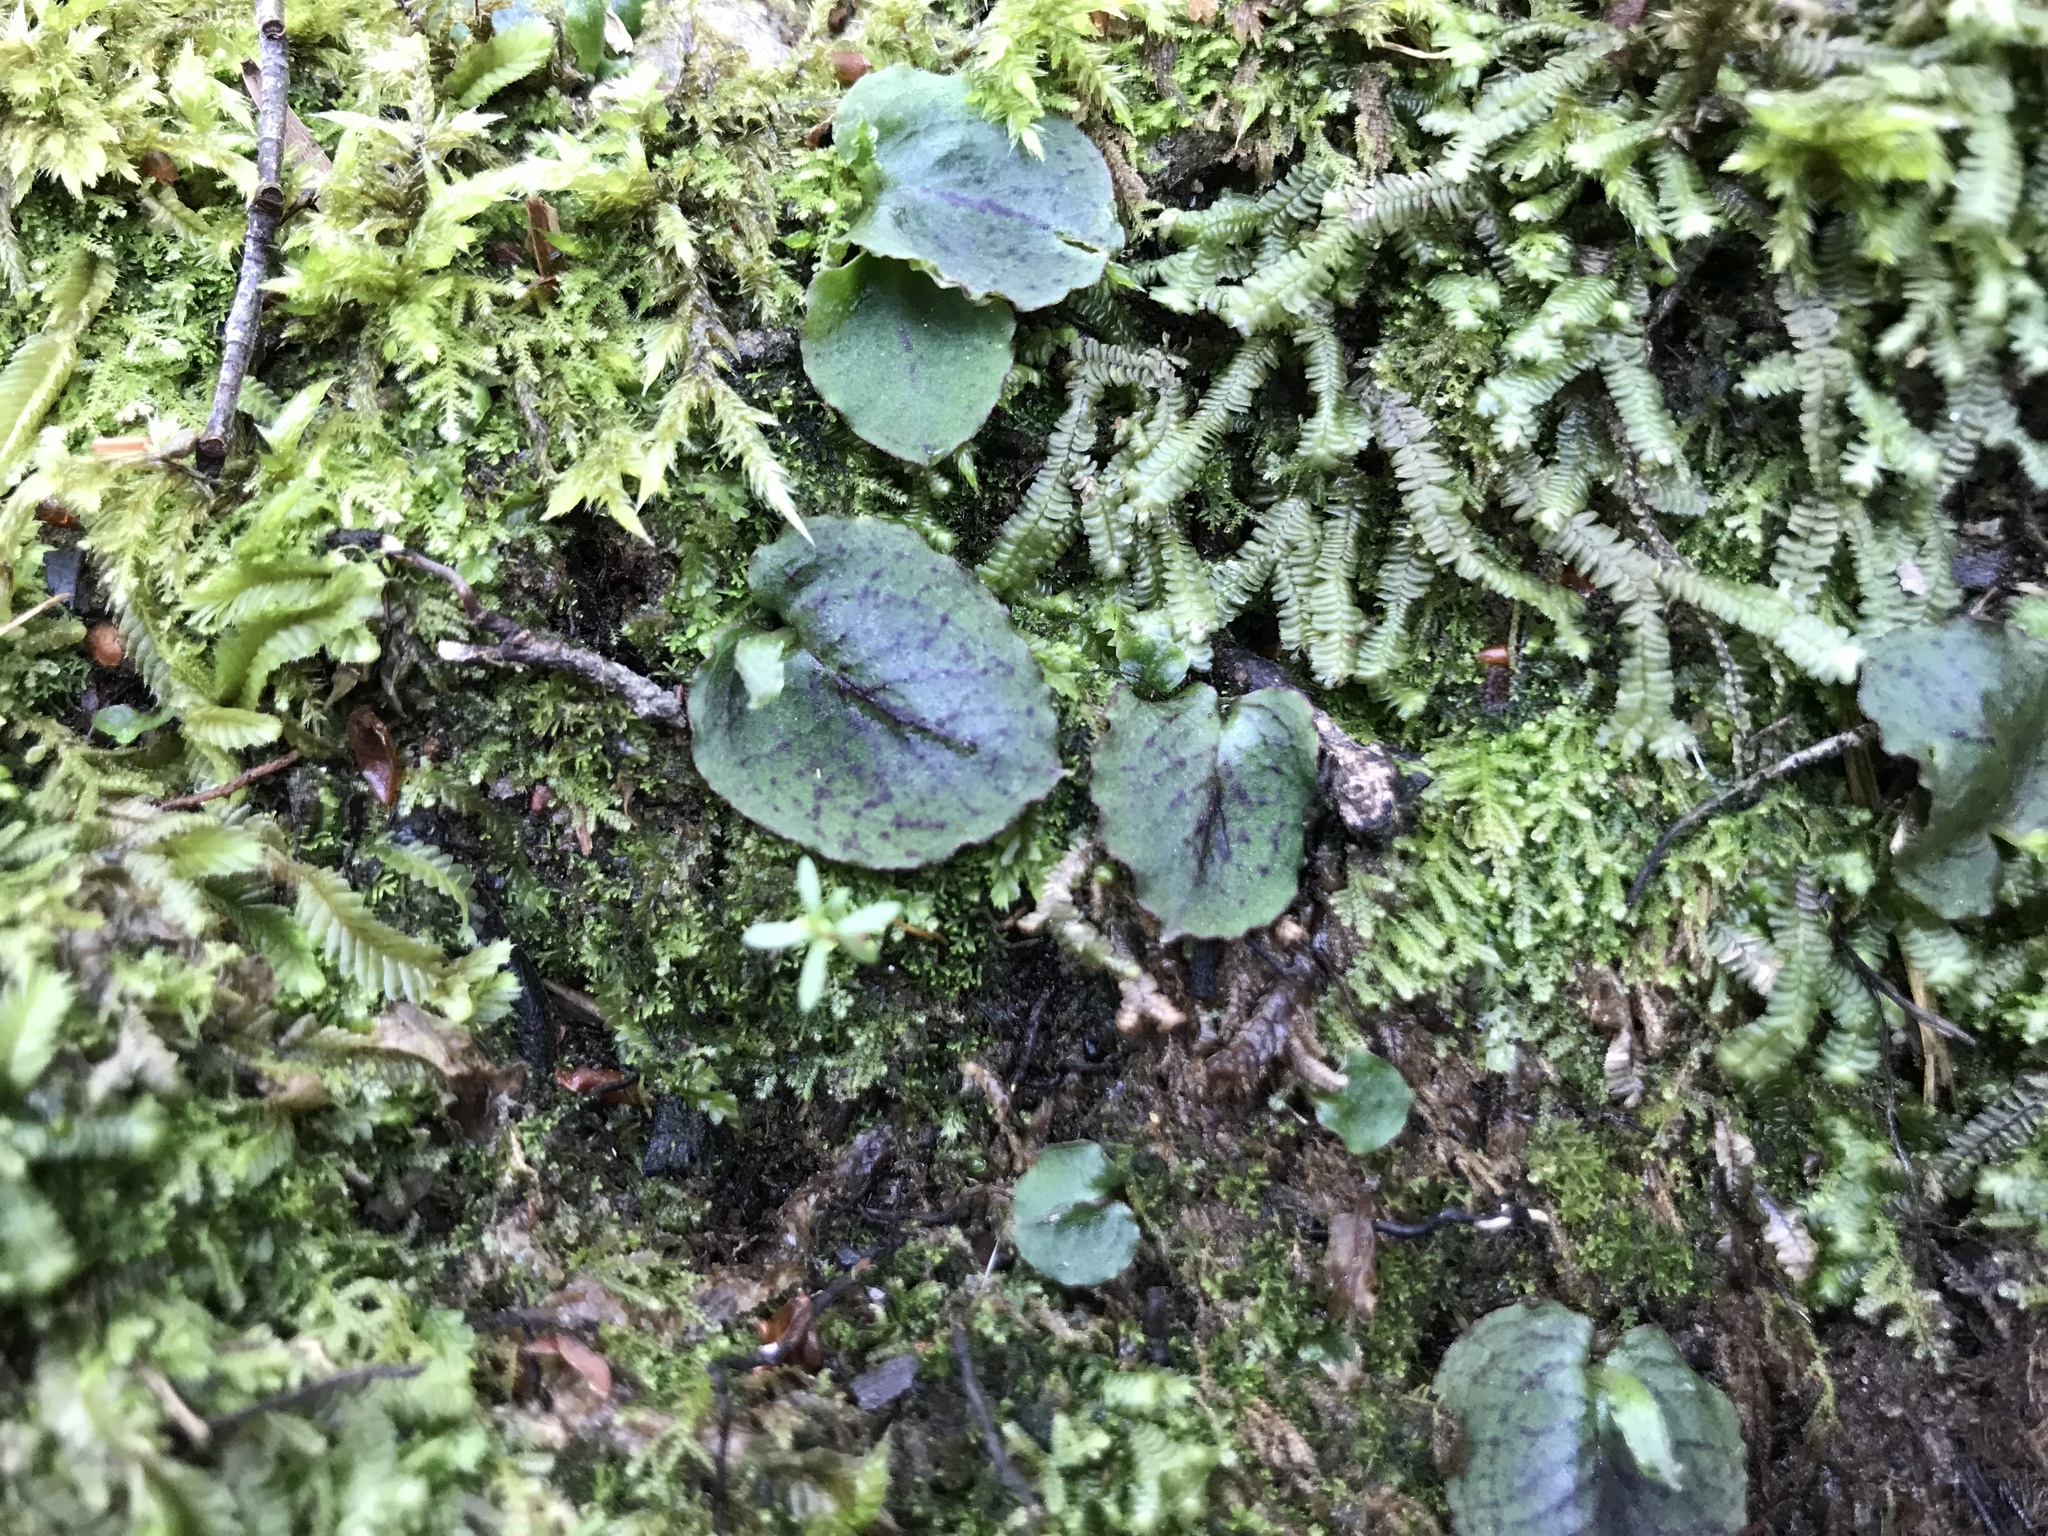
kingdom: Plantae
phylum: Tracheophyta
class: Liliopsida
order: Asparagales
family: Orchidaceae
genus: Corybas
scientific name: Corybas oblongus
